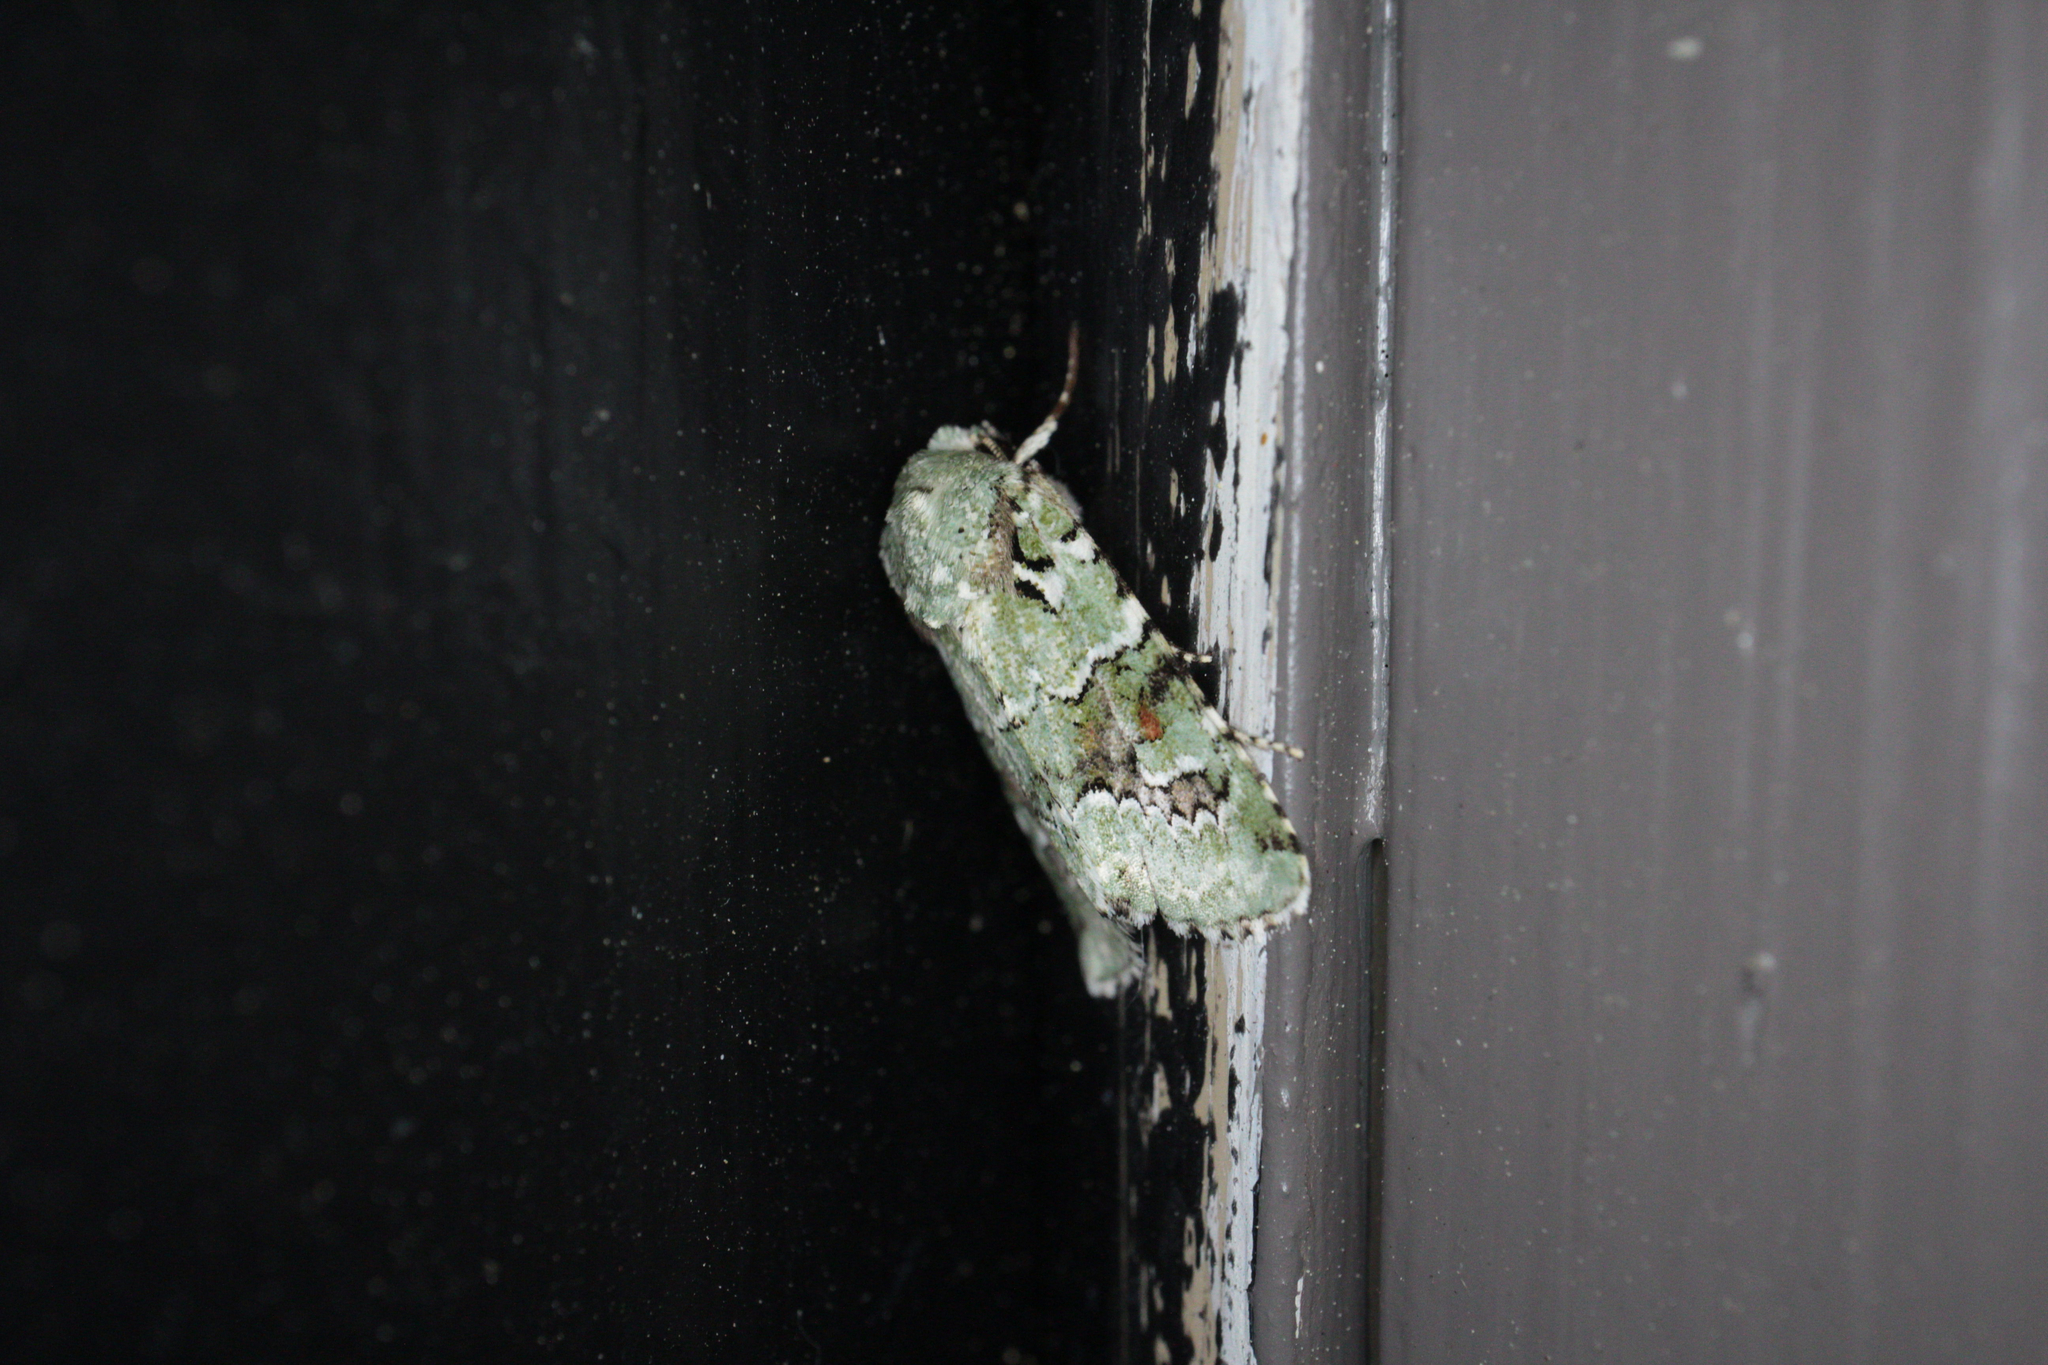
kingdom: Animalia
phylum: Arthropoda
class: Insecta
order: Lepidoptera
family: Noctuidae
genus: Lacinipolia
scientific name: Lacinipolia laudabilis
